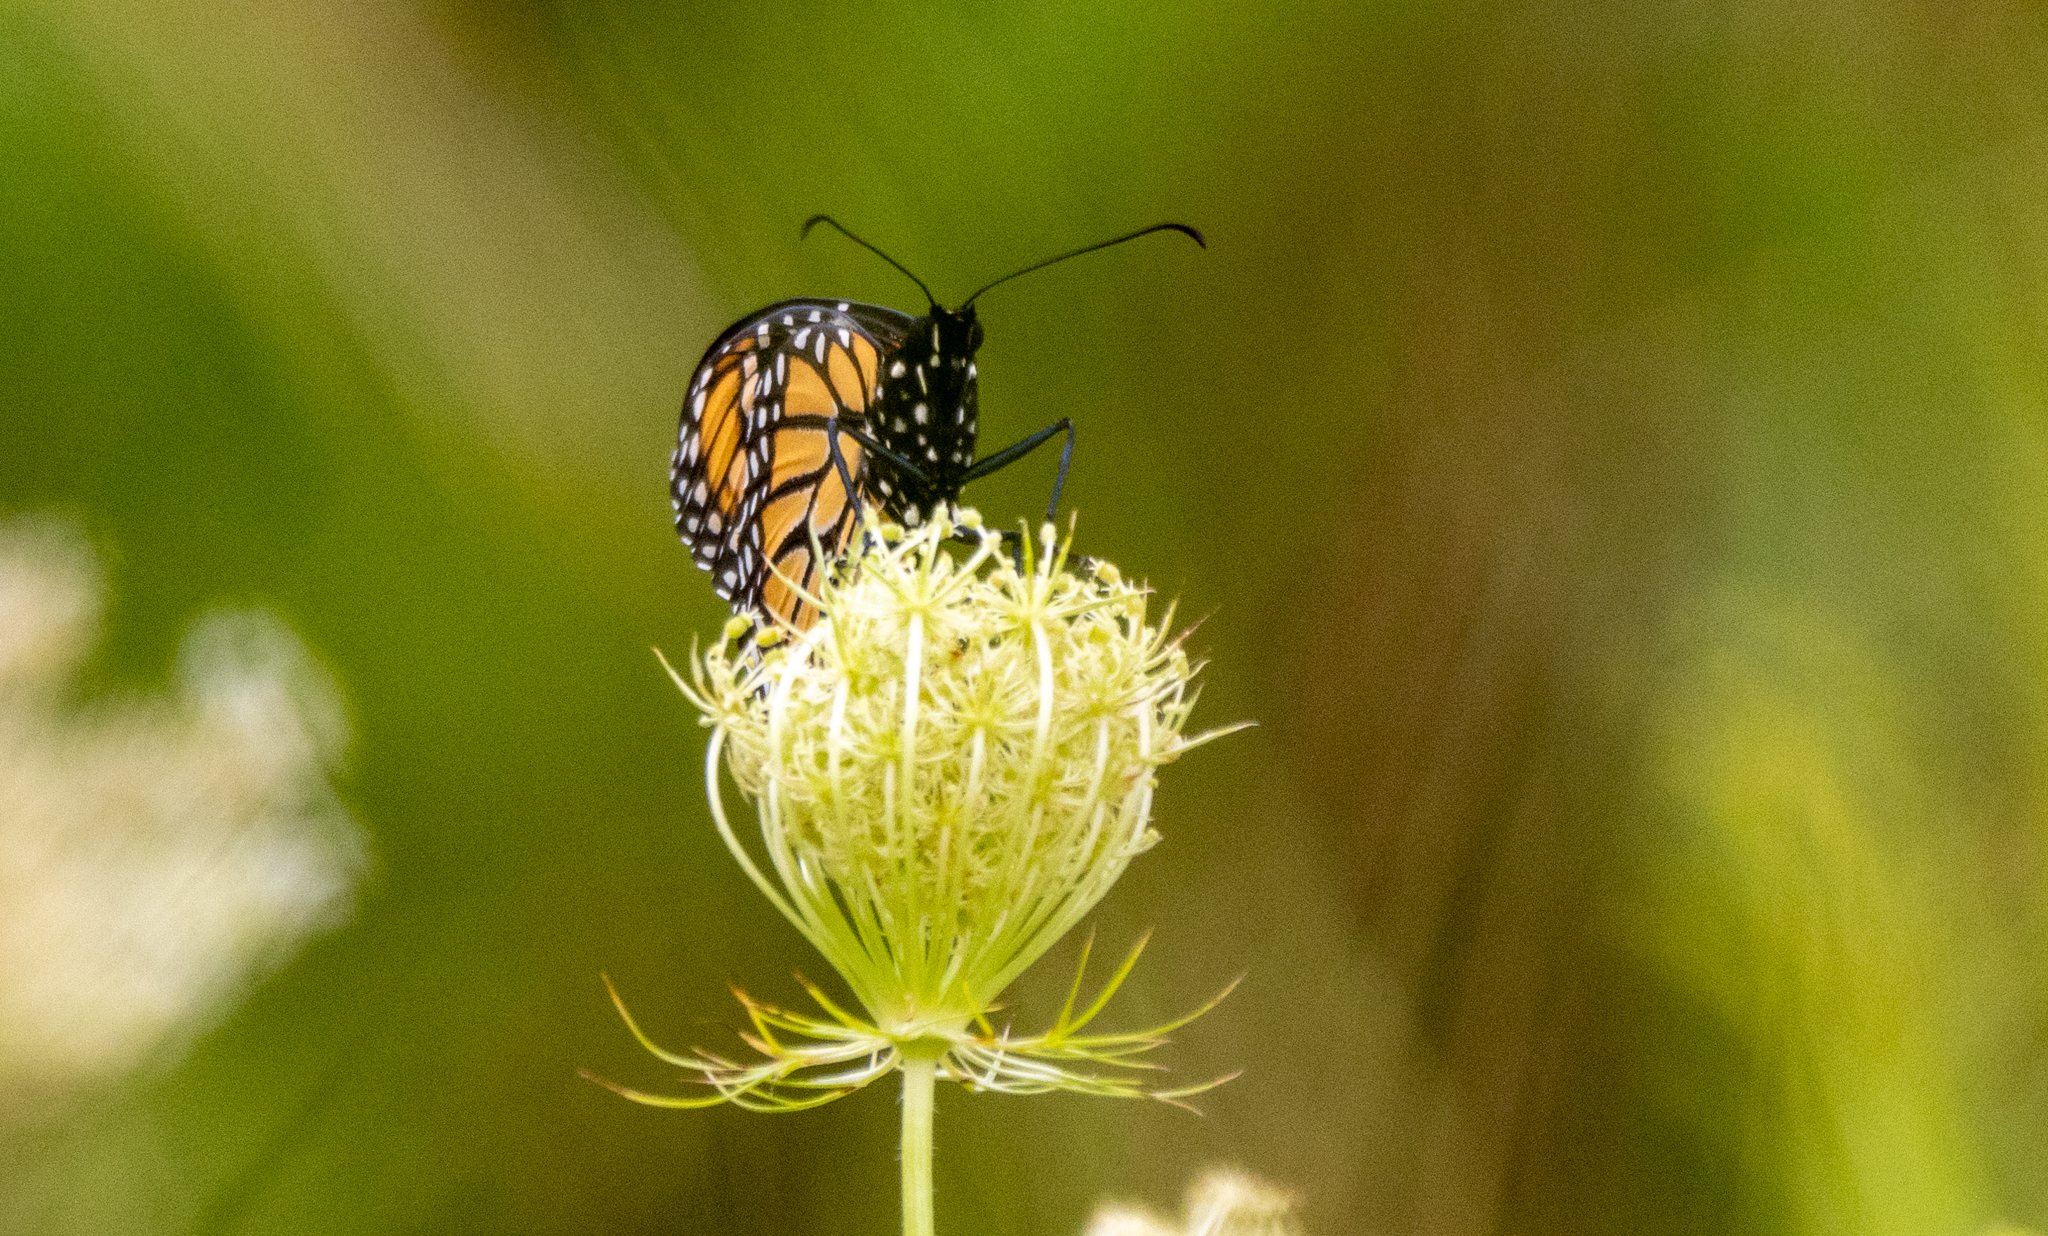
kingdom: Animalia
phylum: Arthropoda
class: Insecta
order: Lepidoptera
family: Nymphalidae
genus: Danaus
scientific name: Danaus plexippus
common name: Monarch
